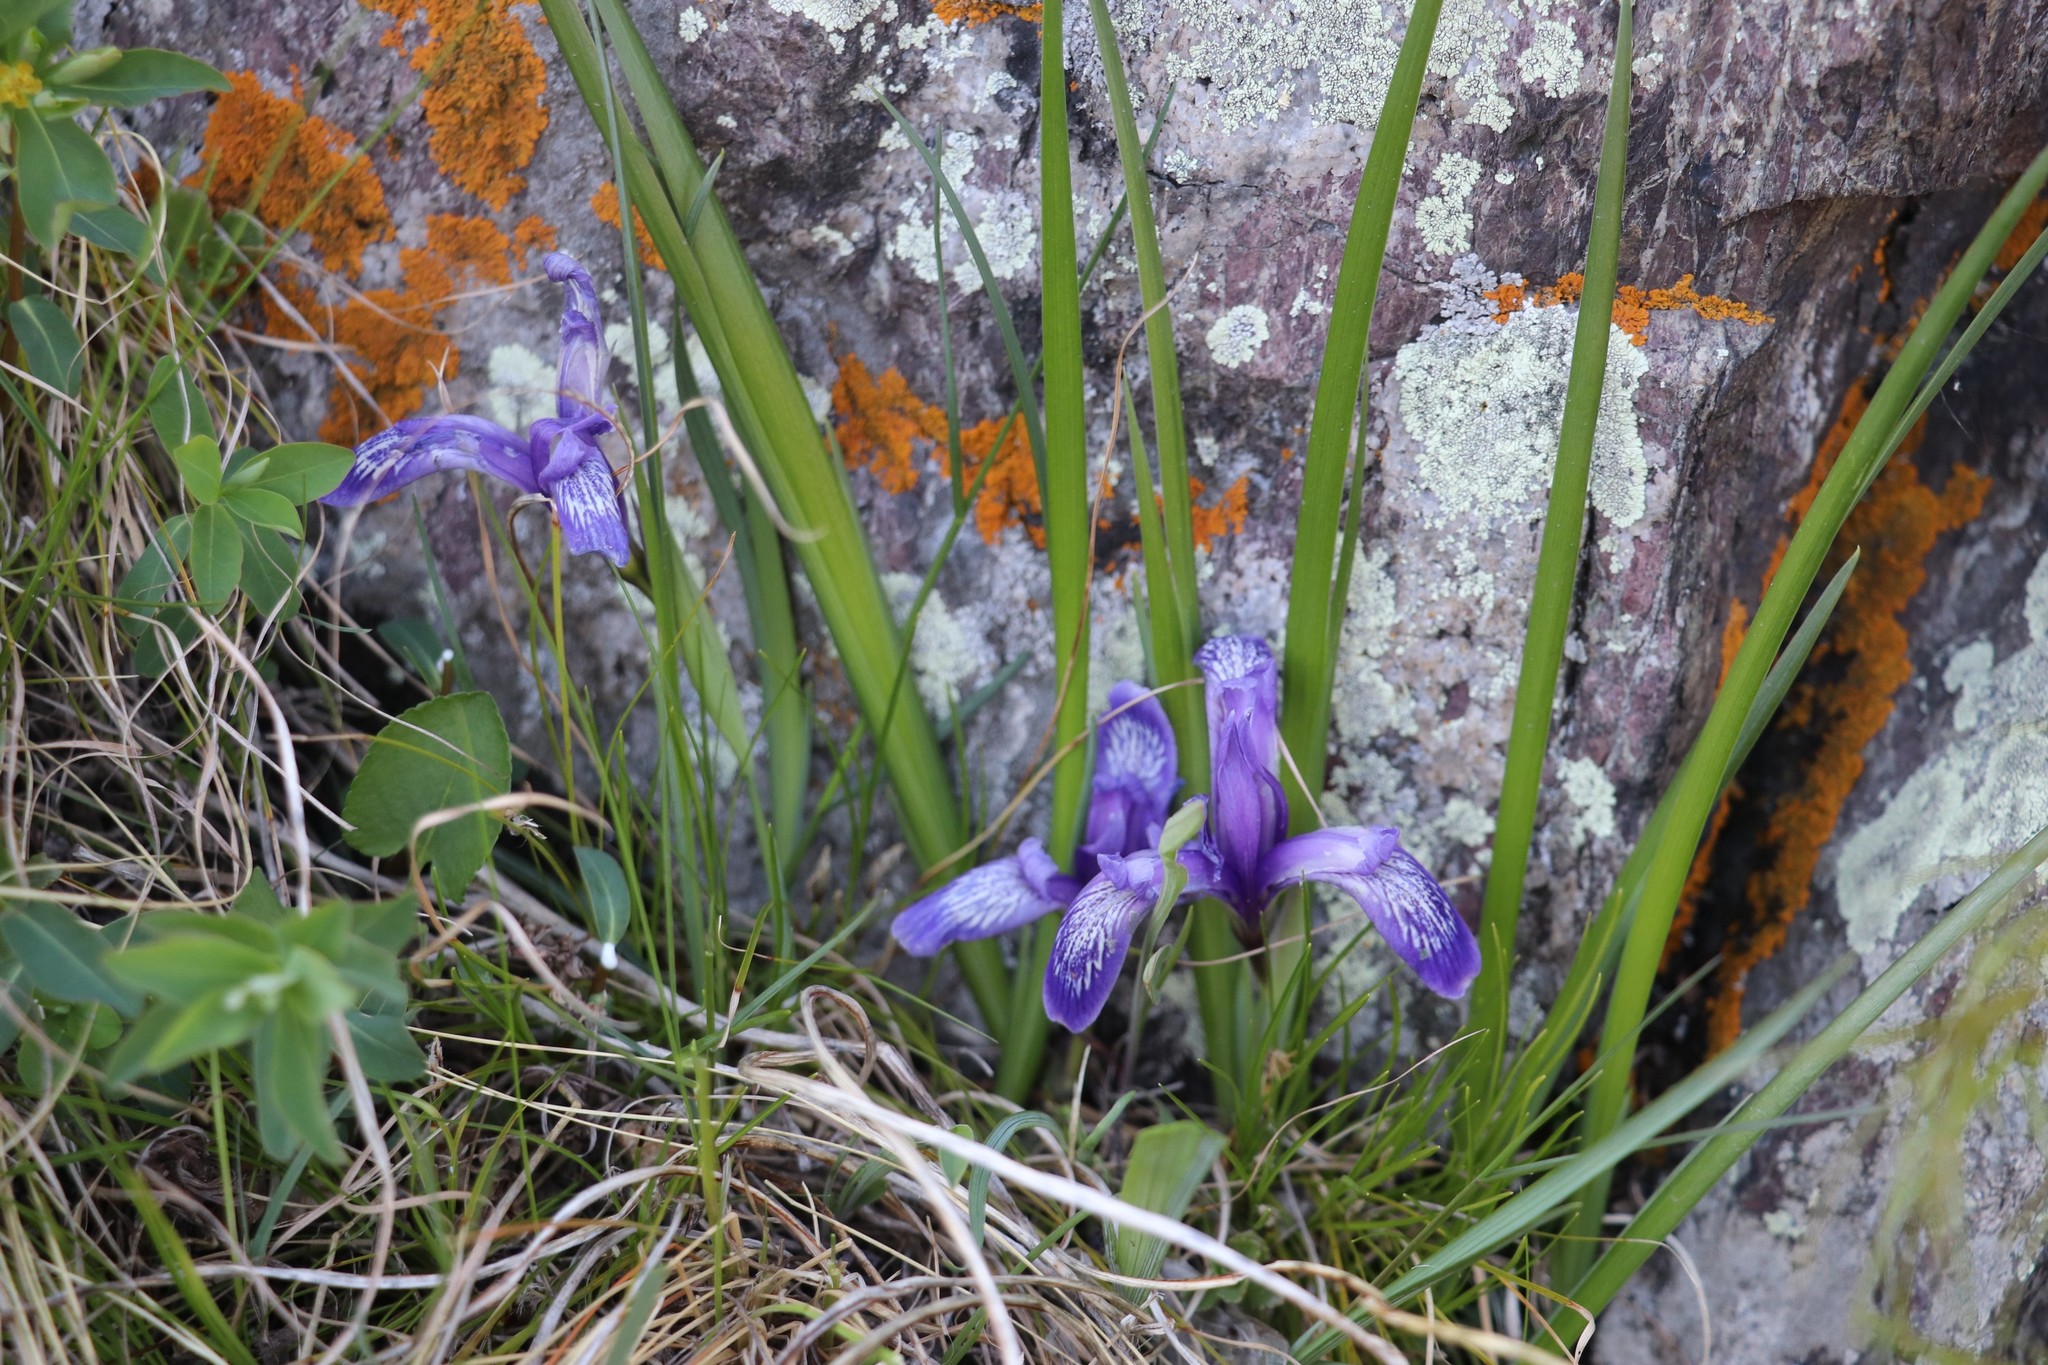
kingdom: Plantae
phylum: Tracheophyta
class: Liliopsida
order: Asparagales
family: Iridaceae
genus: Iris
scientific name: Iris ruthenica
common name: Purple-bract iris
